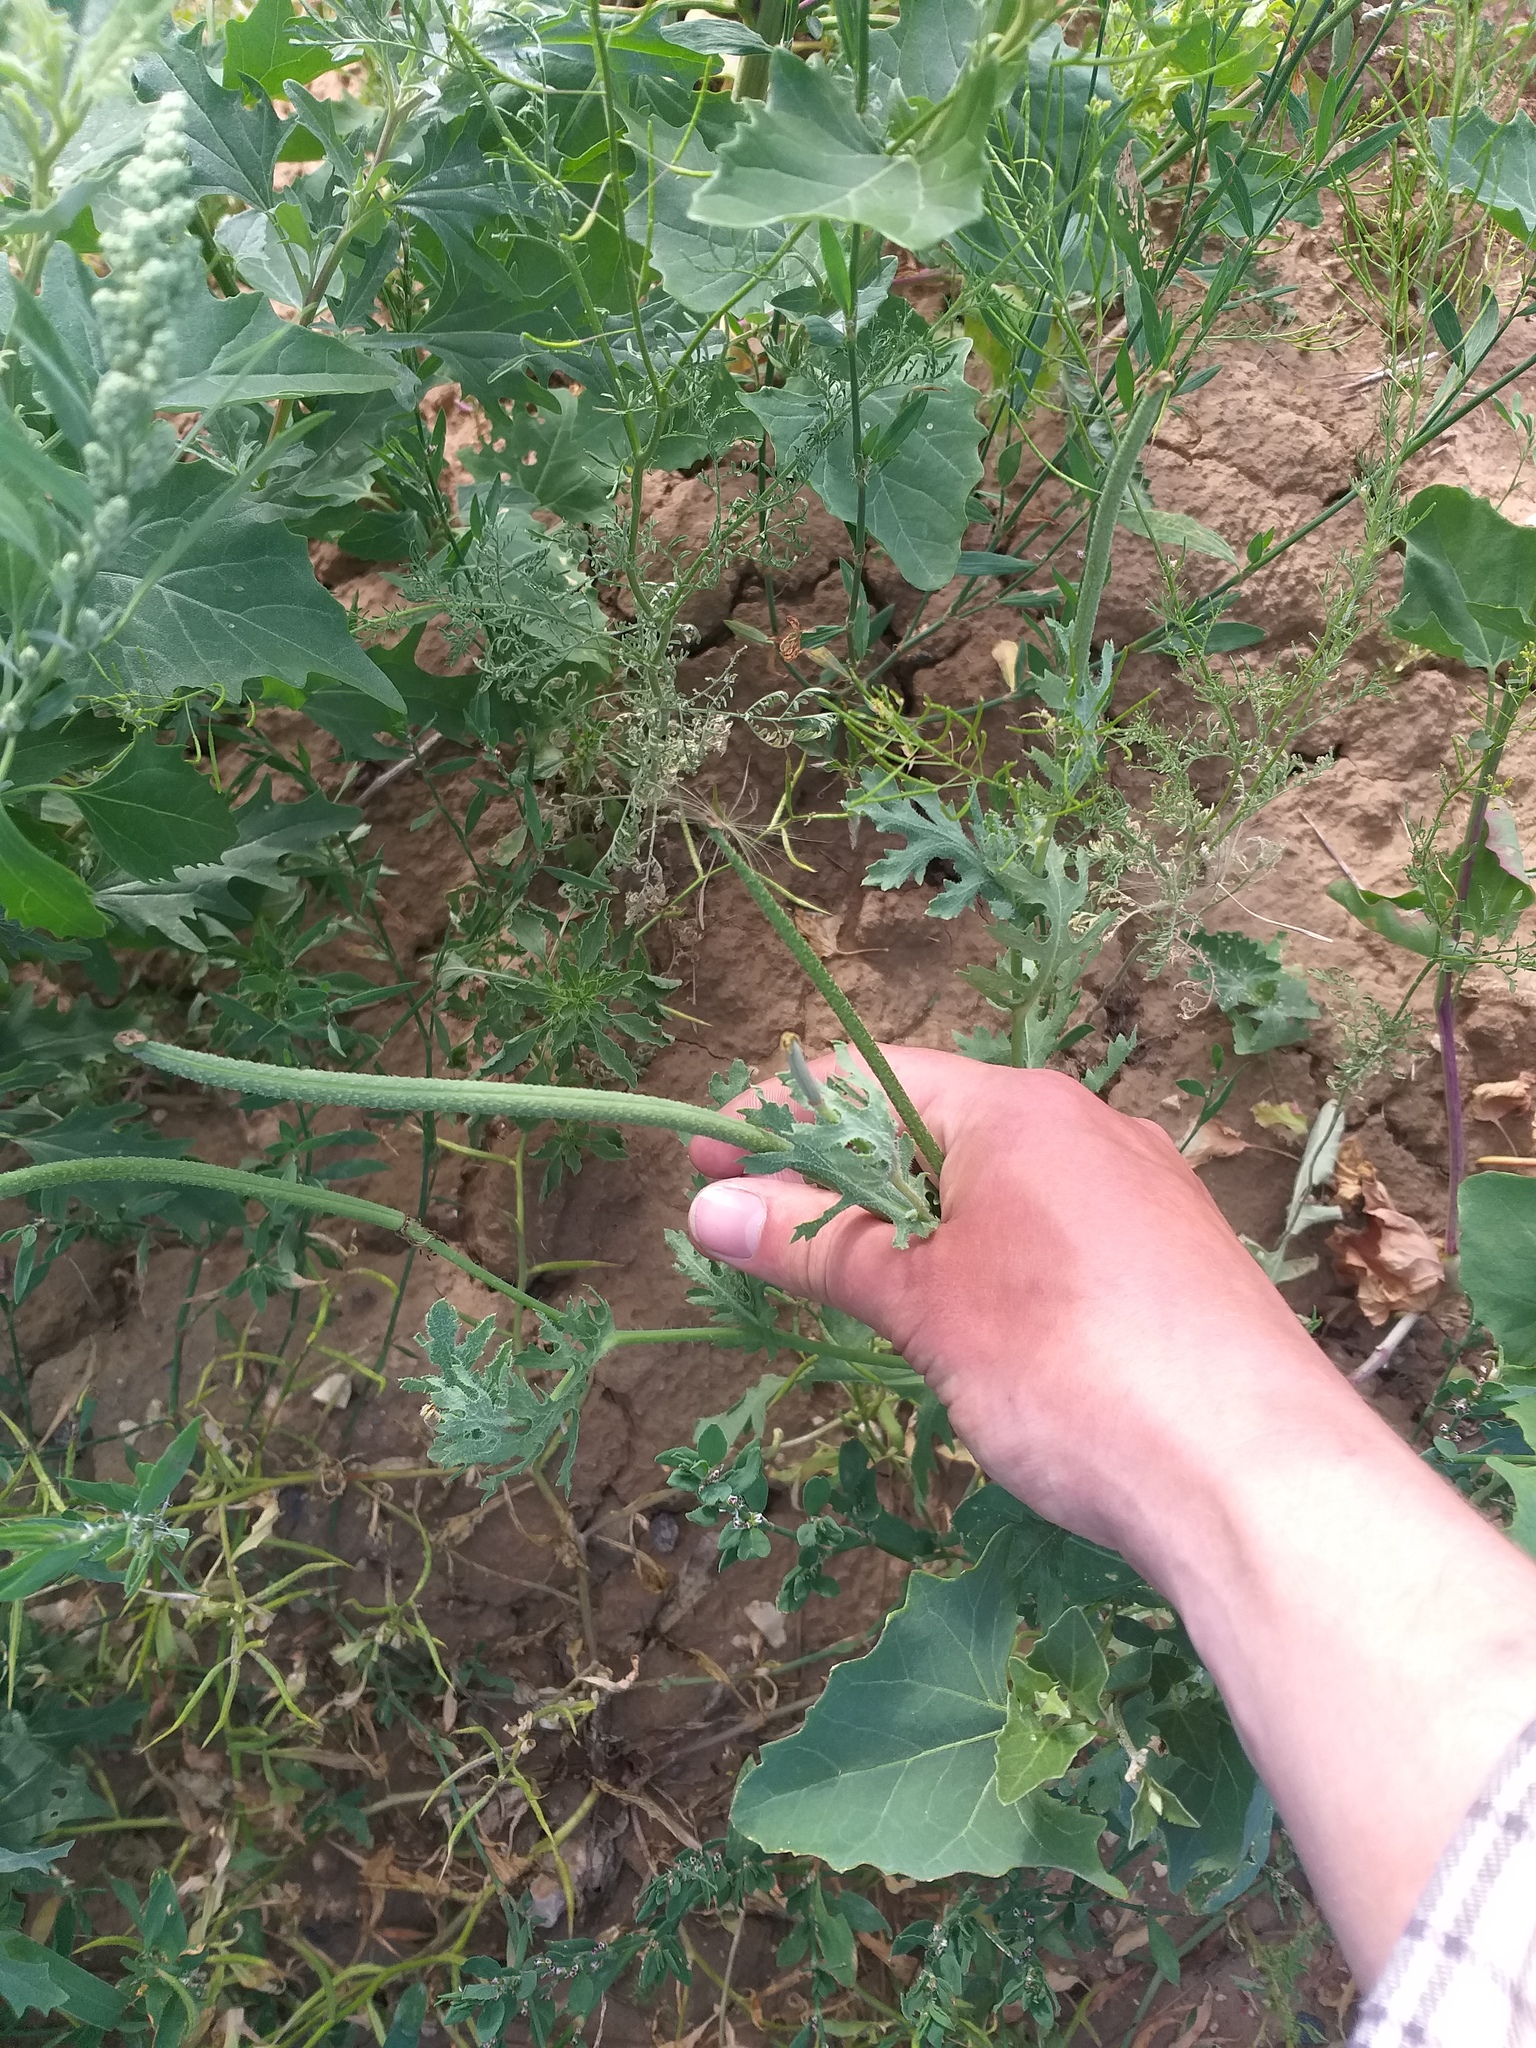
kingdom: Plantae
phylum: Tracheophyta
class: Magnoliopsida
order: Ranunculales
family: Papaveraceae
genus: Glaucium
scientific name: Glaucium corniculatum
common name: Red horned-poppy
